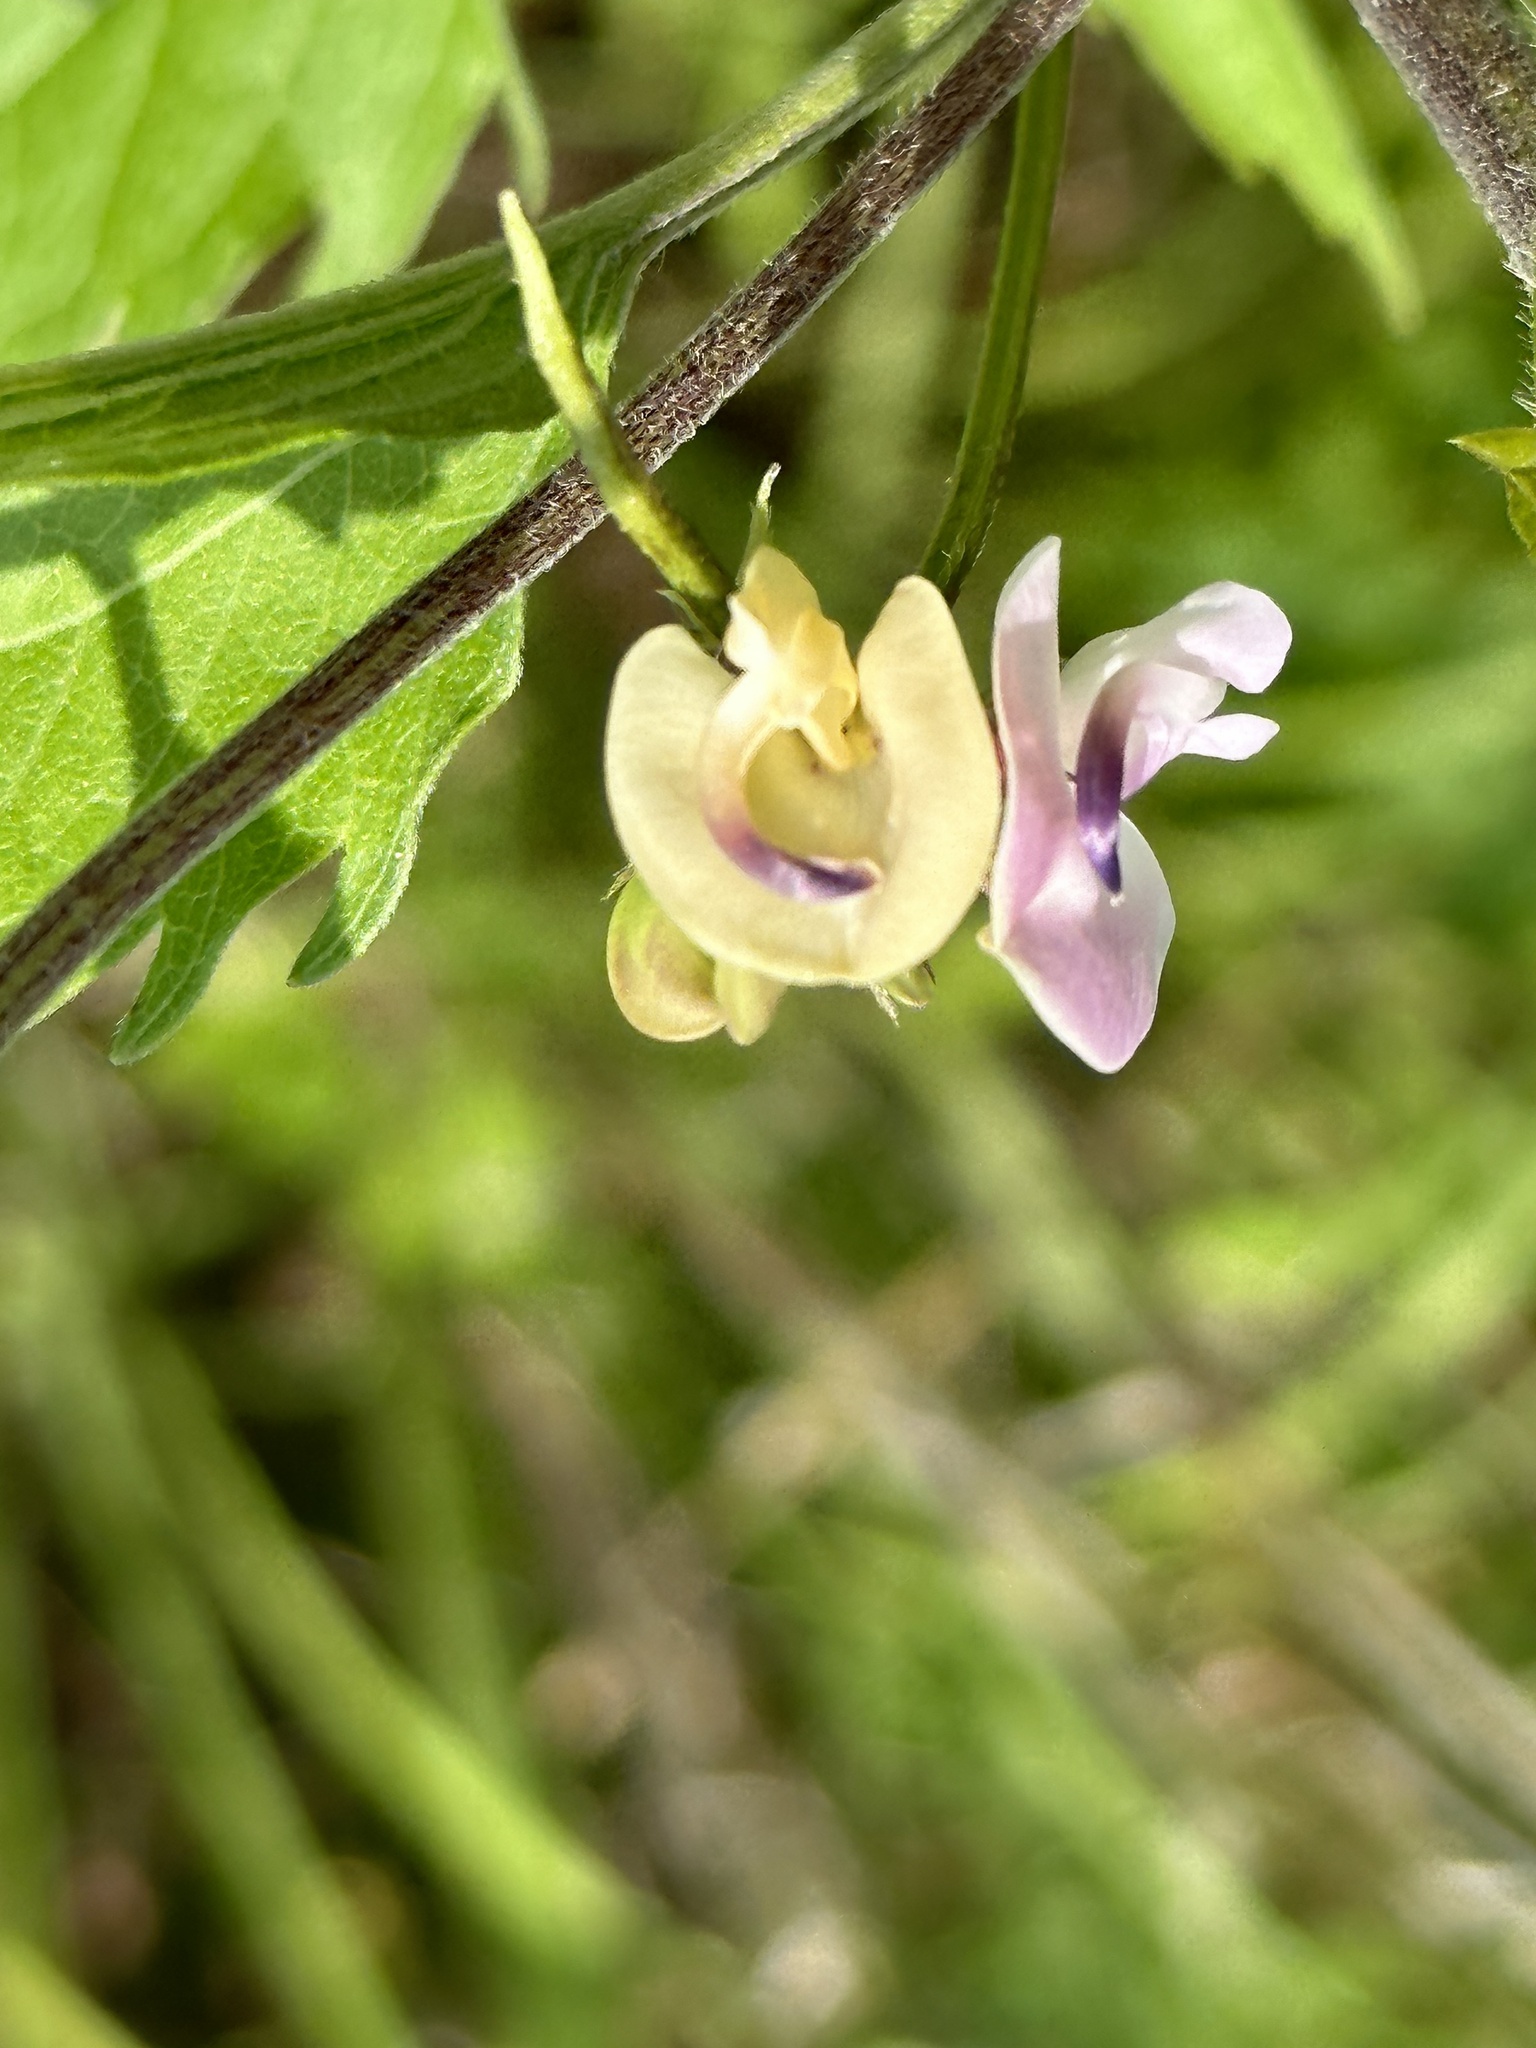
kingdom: Plantae
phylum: Tracheophyta
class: Magnoliopsida
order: Fabales
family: Fabaceae
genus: Strophostyles
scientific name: Strophostyles helvola
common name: Trailing wild bean
